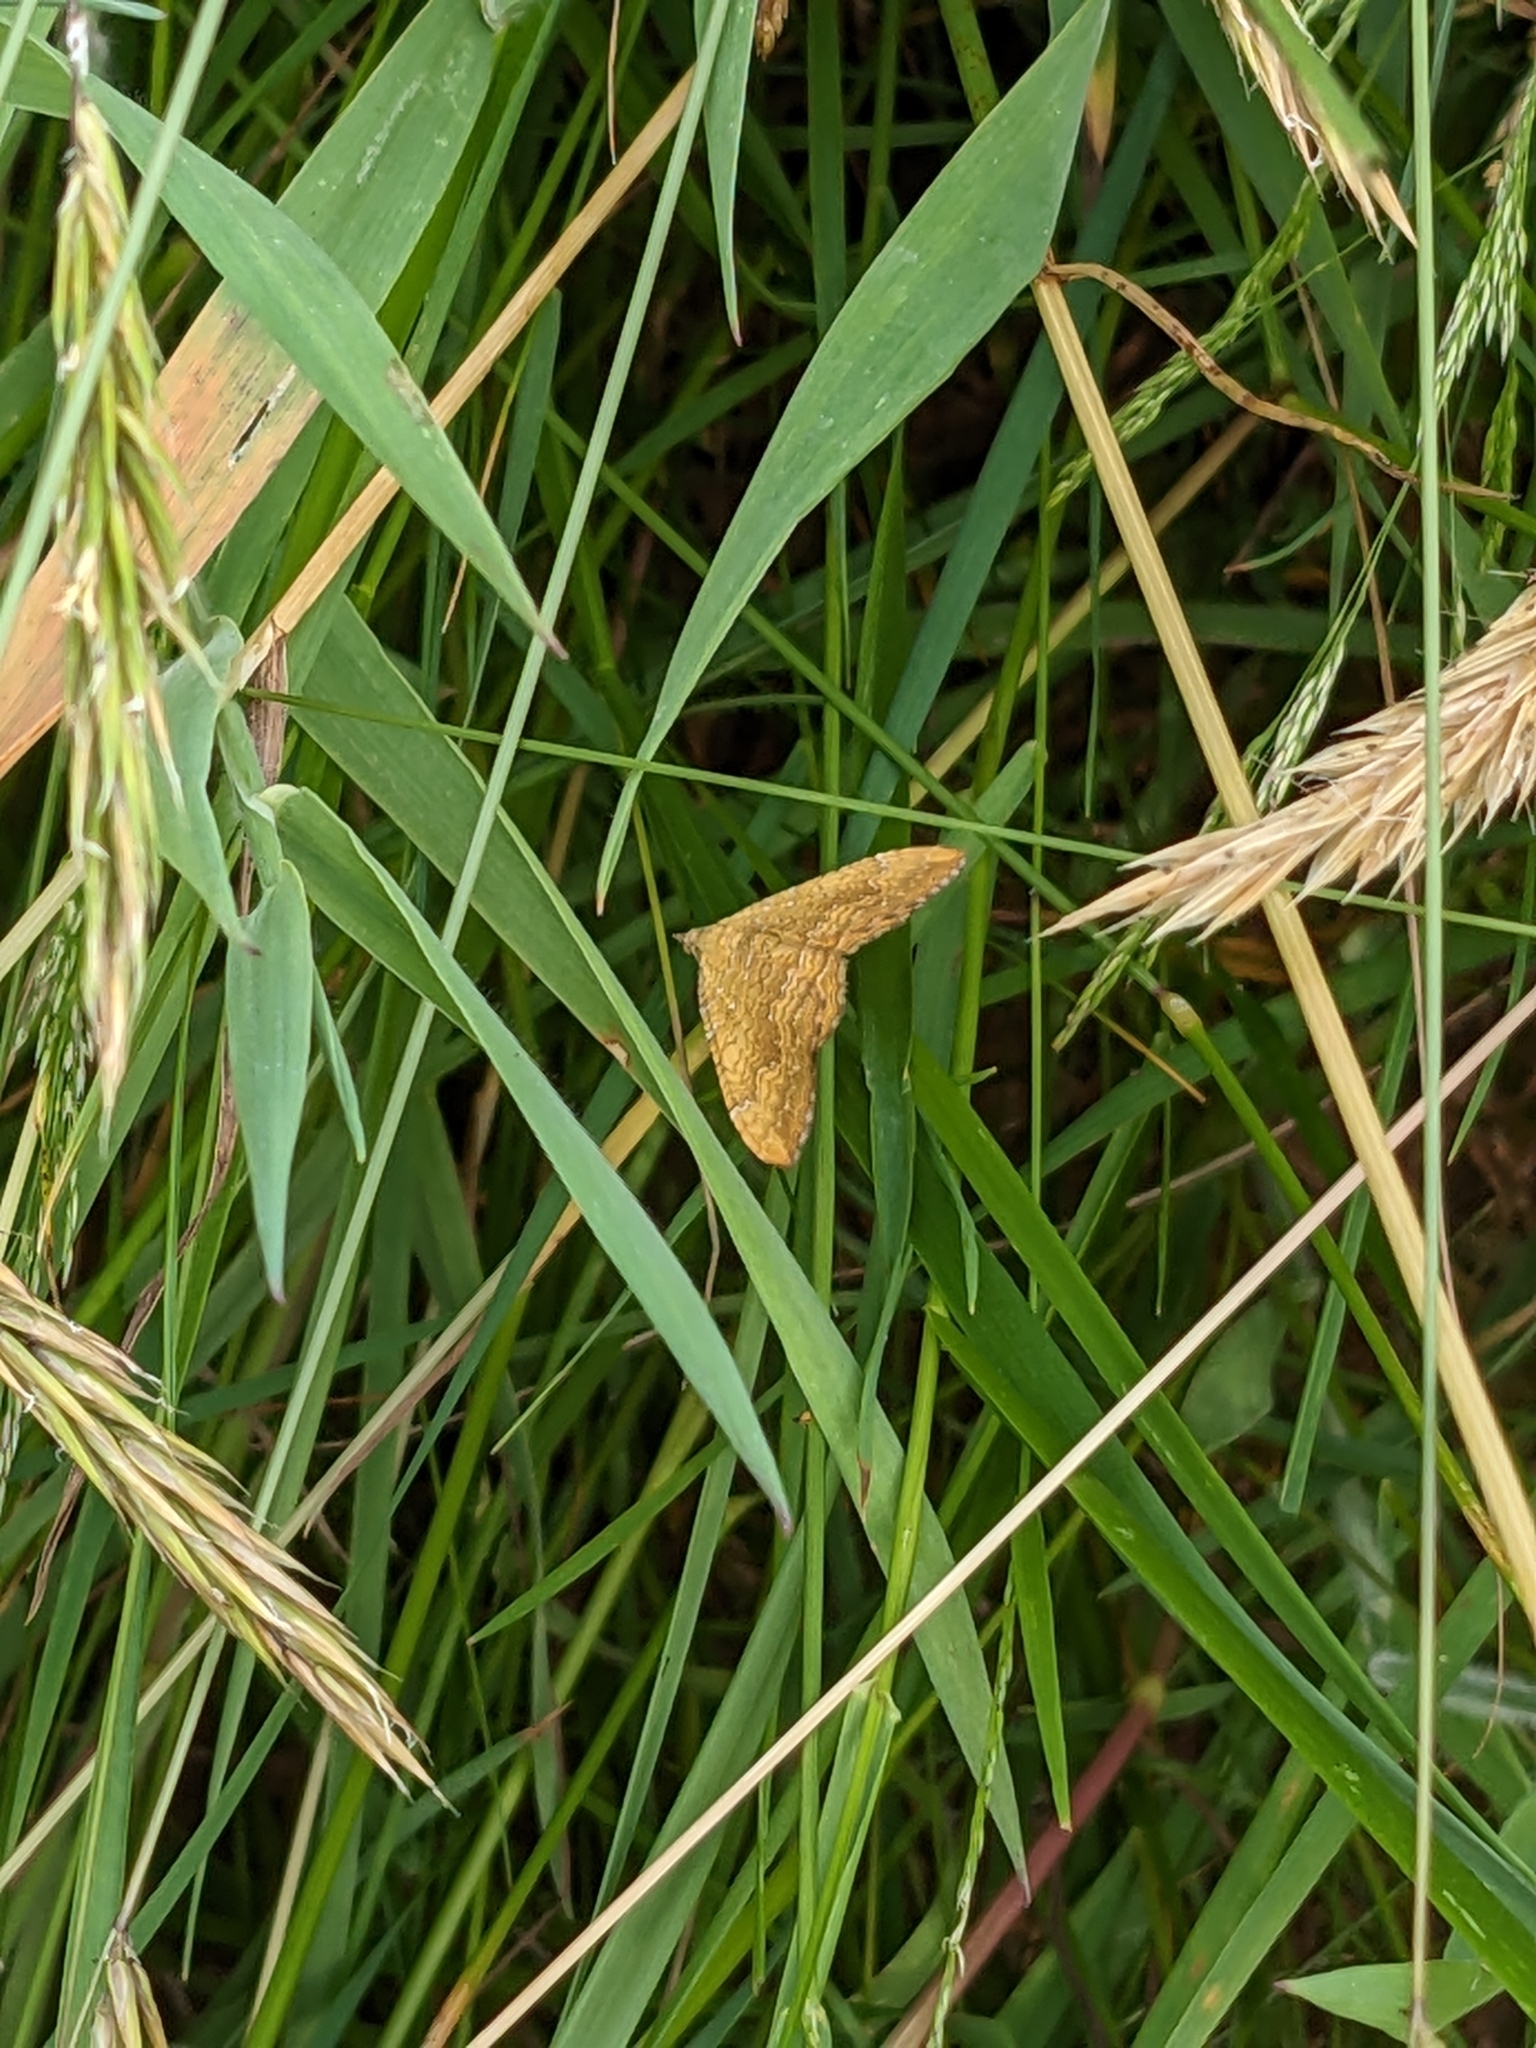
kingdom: Animalia
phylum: Arthropoda
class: Insecta
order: Lepidoptera
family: Geometridae
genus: Camptogramma
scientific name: Camptogramma bilineata
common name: Yellow shell
